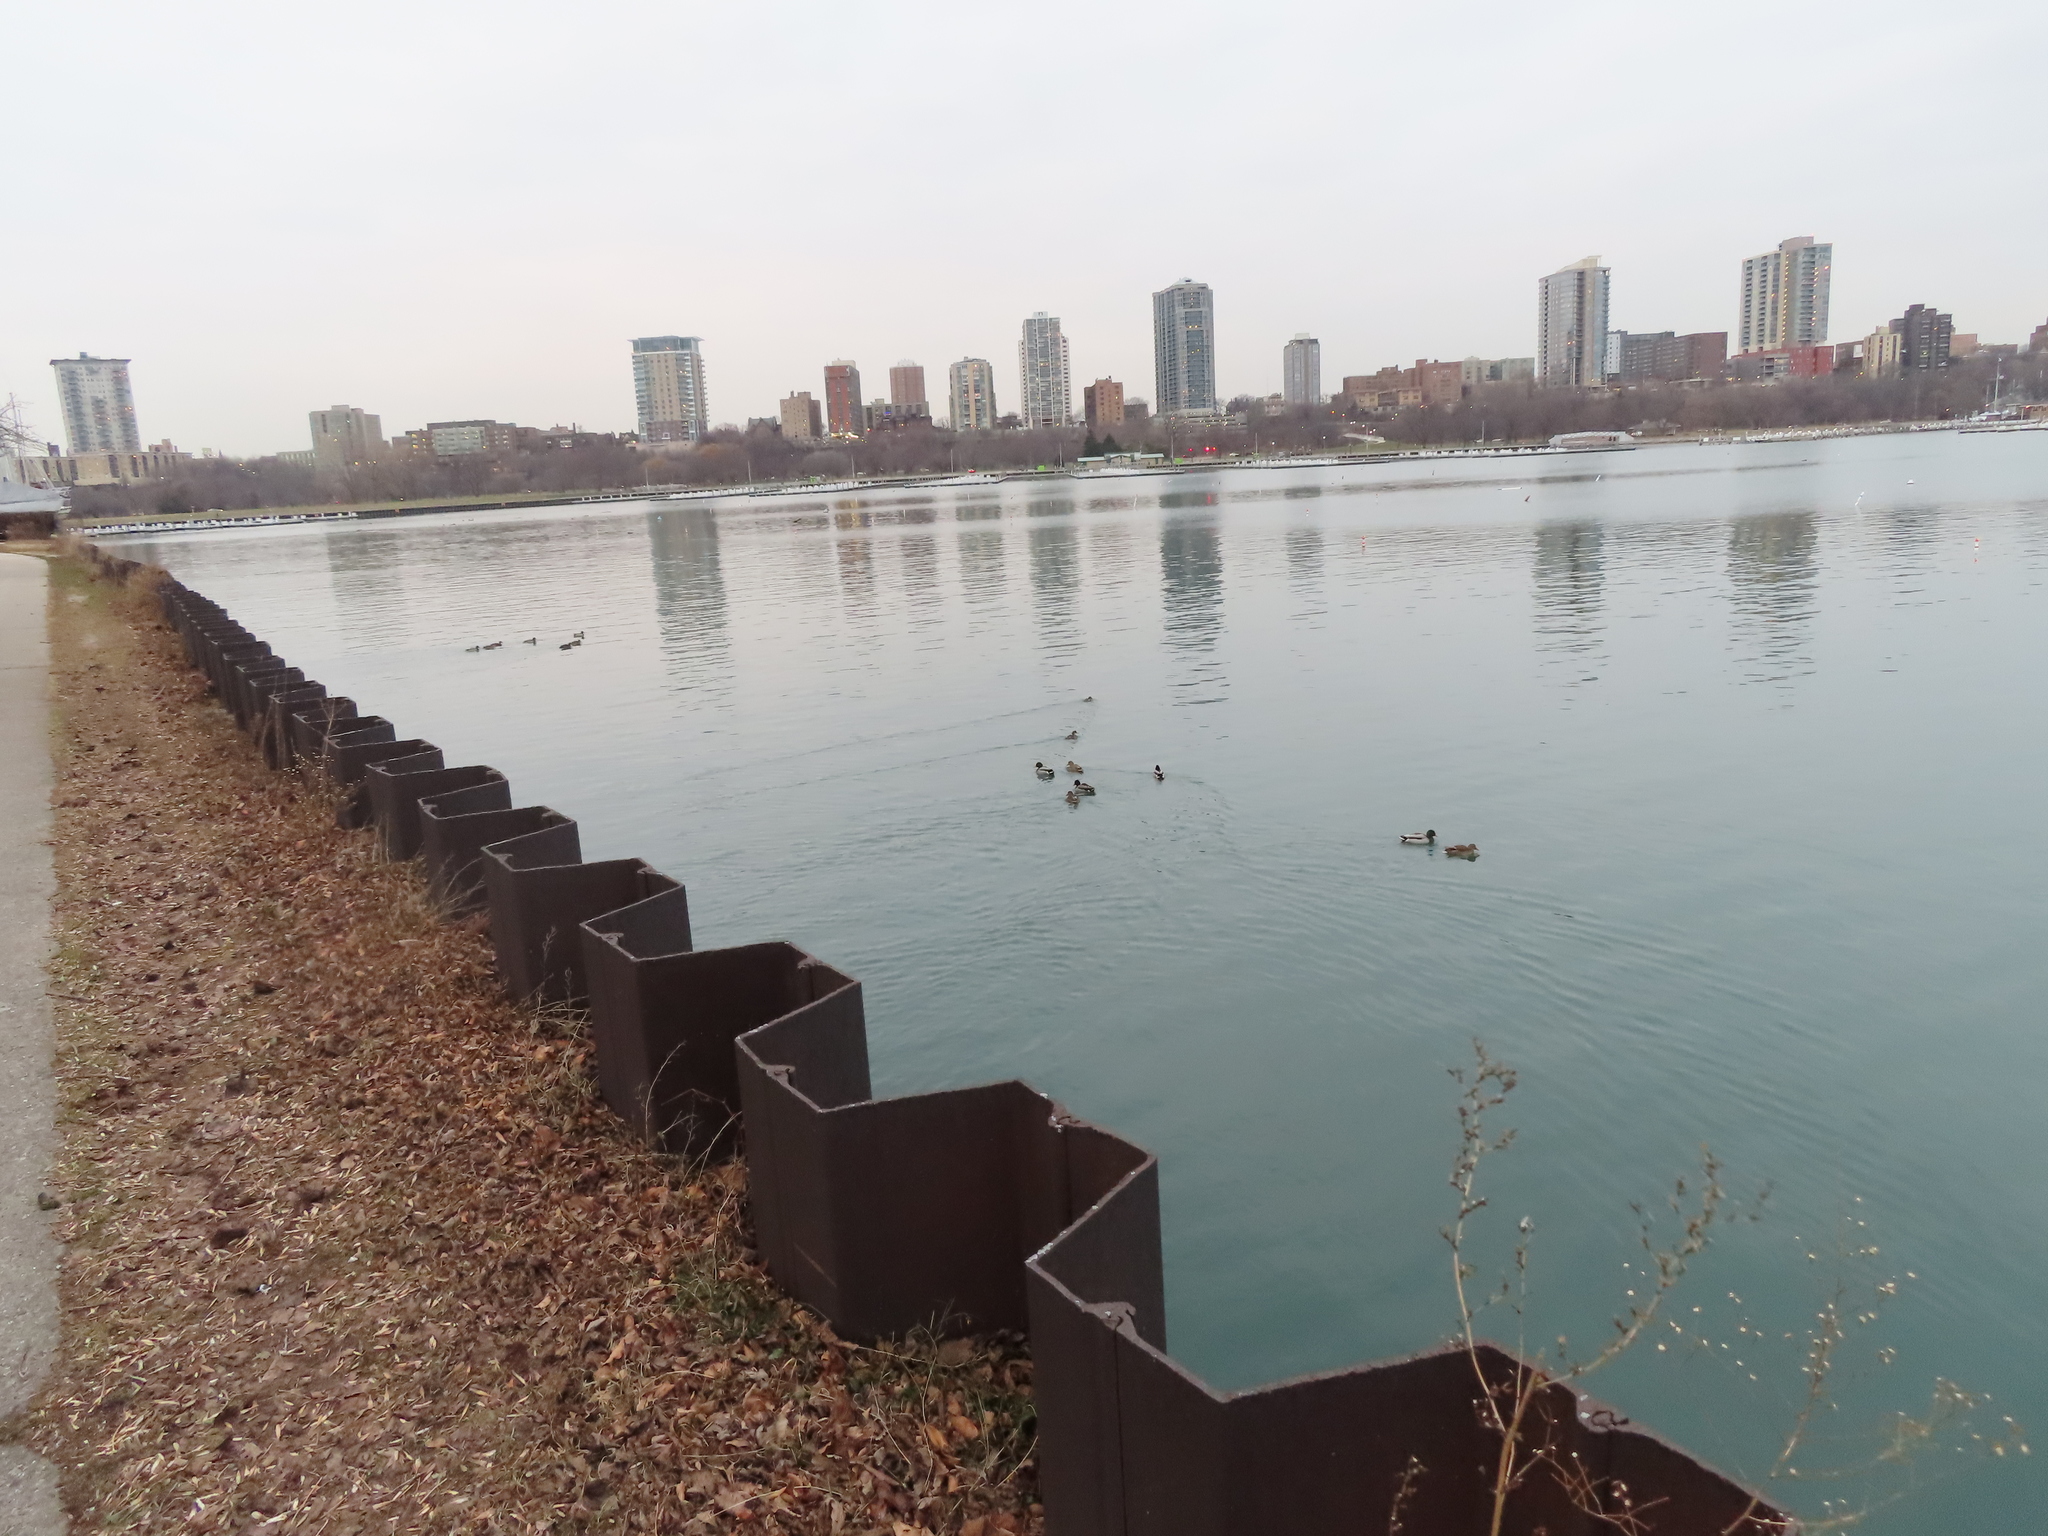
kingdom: Animalia
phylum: Chordata
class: Aves
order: Anseriformes
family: Anatidae
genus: Anas
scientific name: Anas platyrhynchos
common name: Mallard
